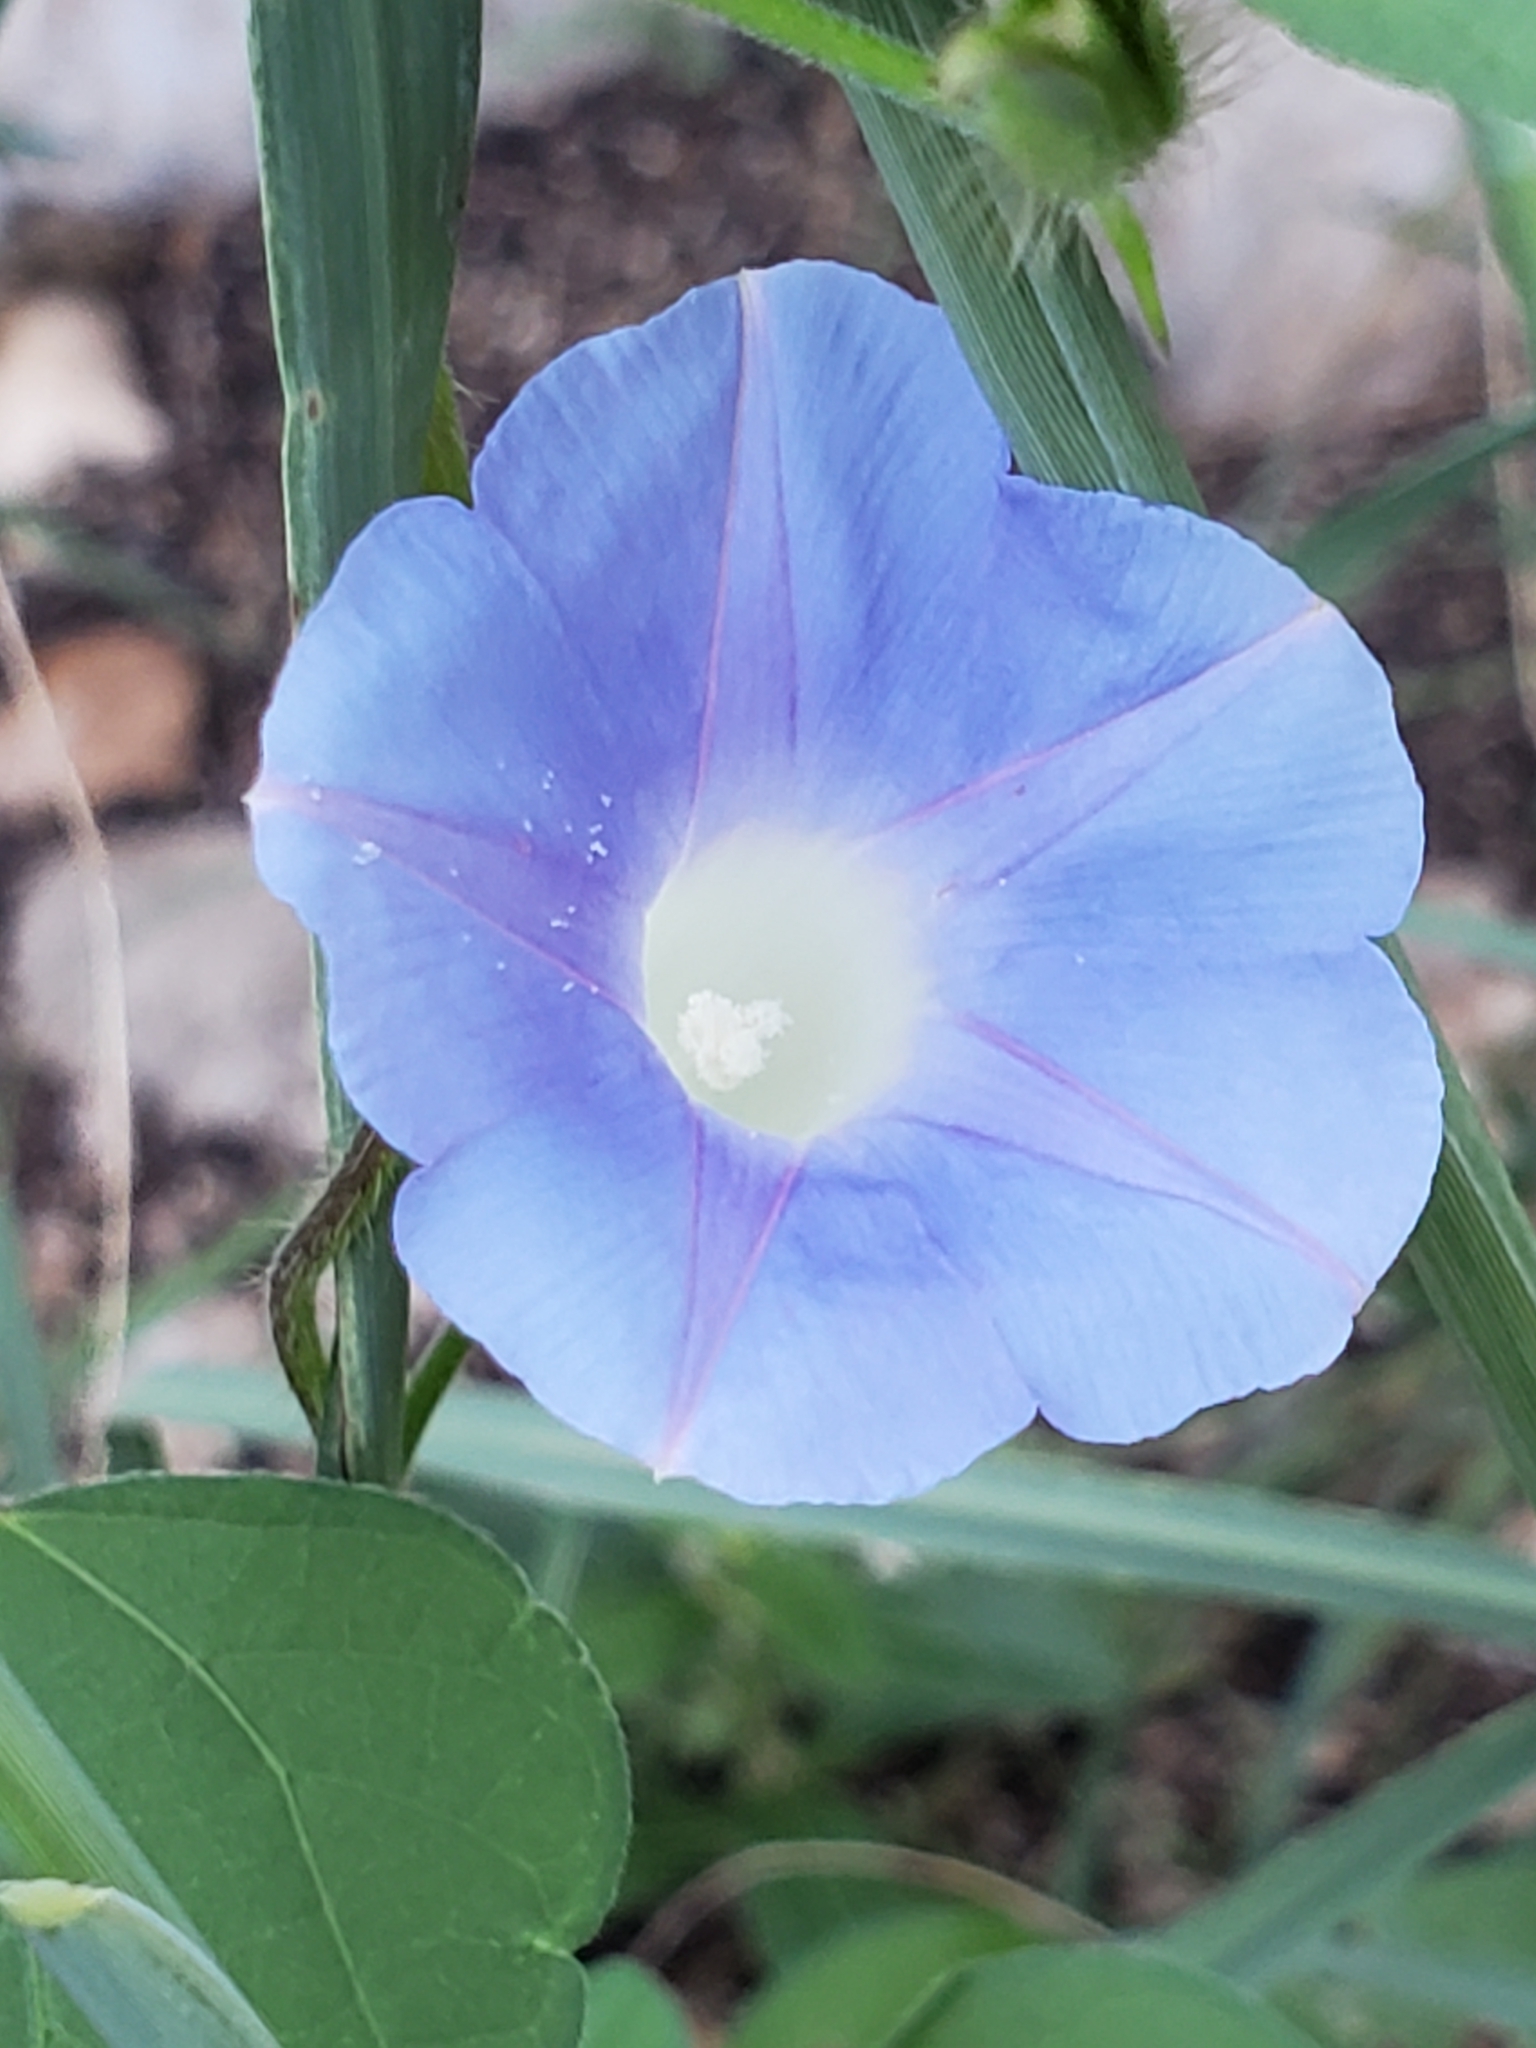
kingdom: Plantae
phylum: Tracheophyta
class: Magnoliopsida
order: Solanales
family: Convolvulaceae
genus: Ipomoea
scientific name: Ipomoea hederacea
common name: Ivy-leaved morning-glory
